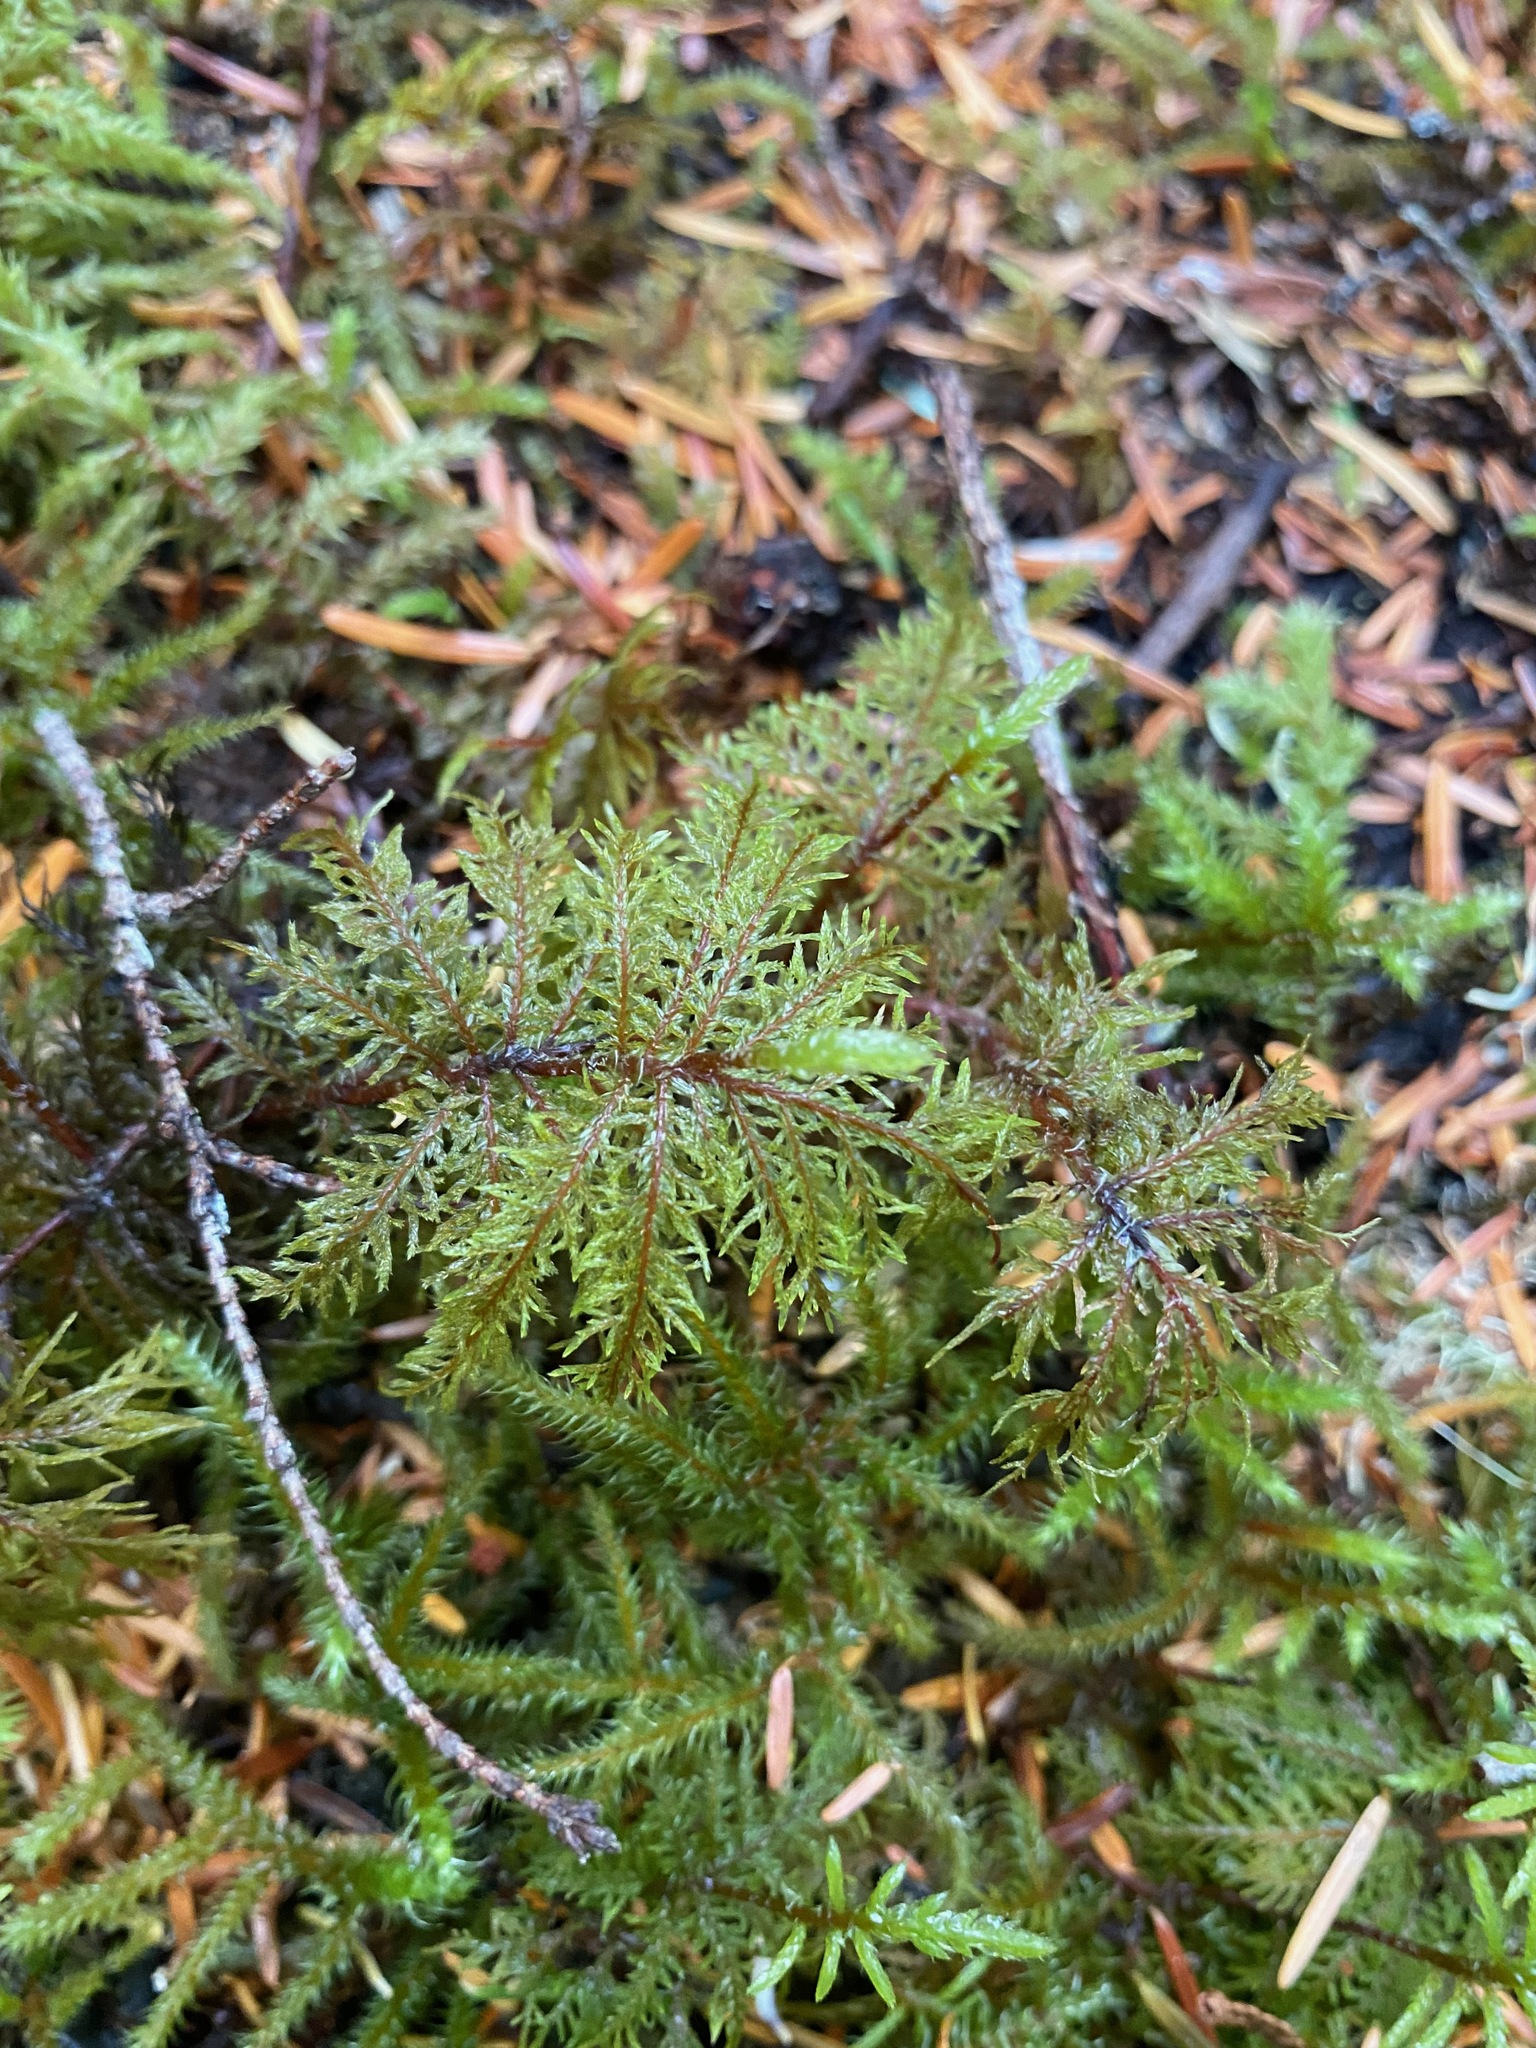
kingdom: Plantae
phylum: Bryophyta
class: Bryopsida
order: Hypnales
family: Hylocomiaceae
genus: Hylocomium
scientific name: Hylocomium splendens
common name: Stairstep moss
